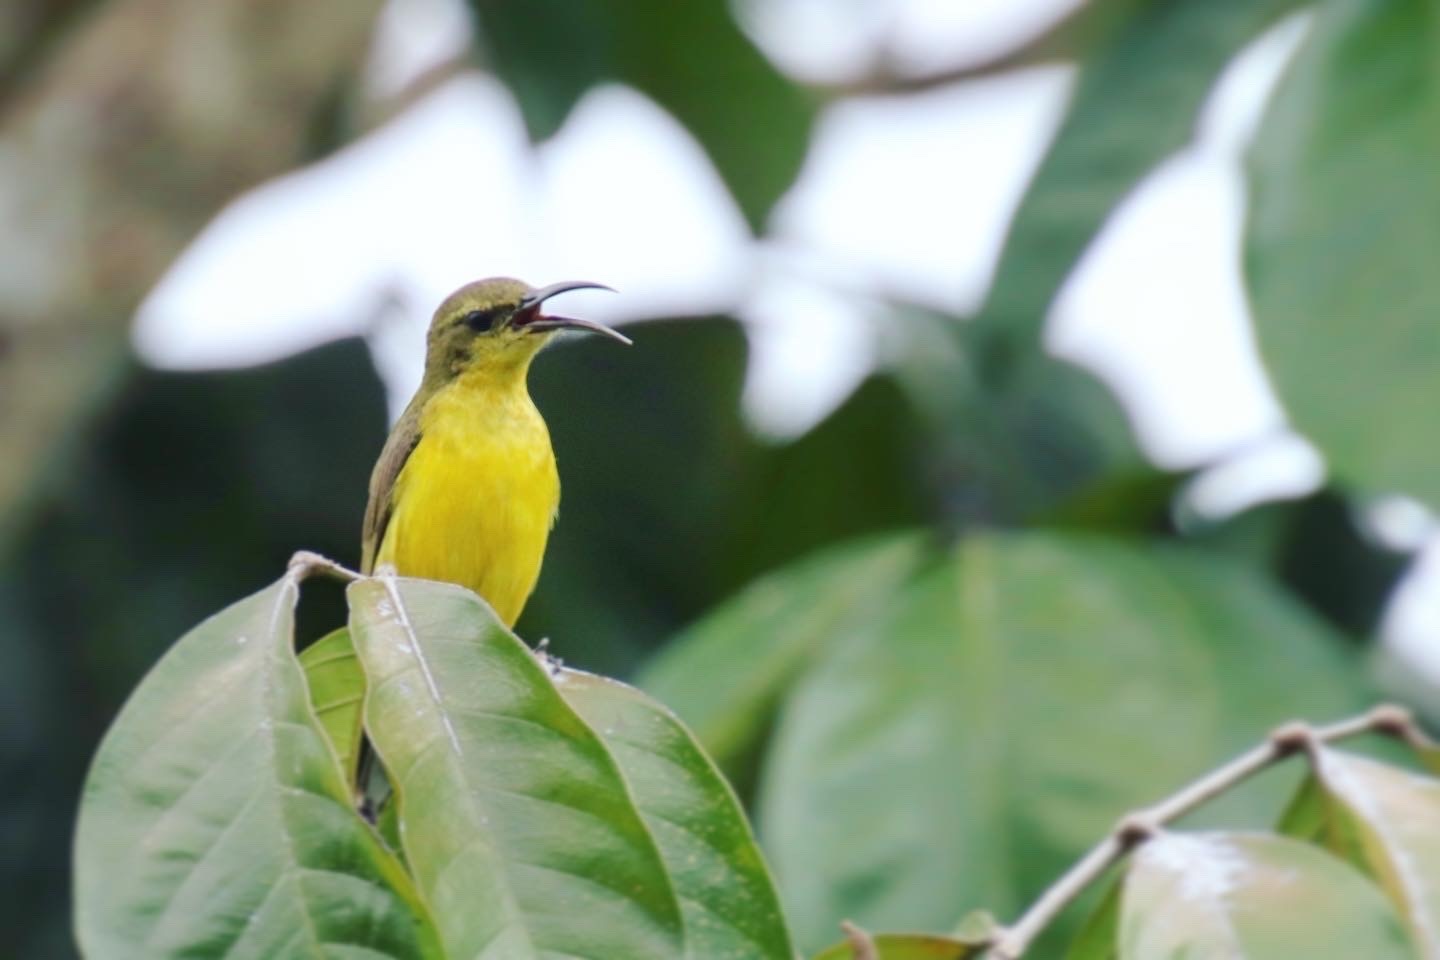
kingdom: Animalia
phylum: Chordata
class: Aves
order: Passeriformes
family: Nectariniidae
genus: Cinnyris
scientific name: Cinnyris jugularis
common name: Olive-backed sunbird
